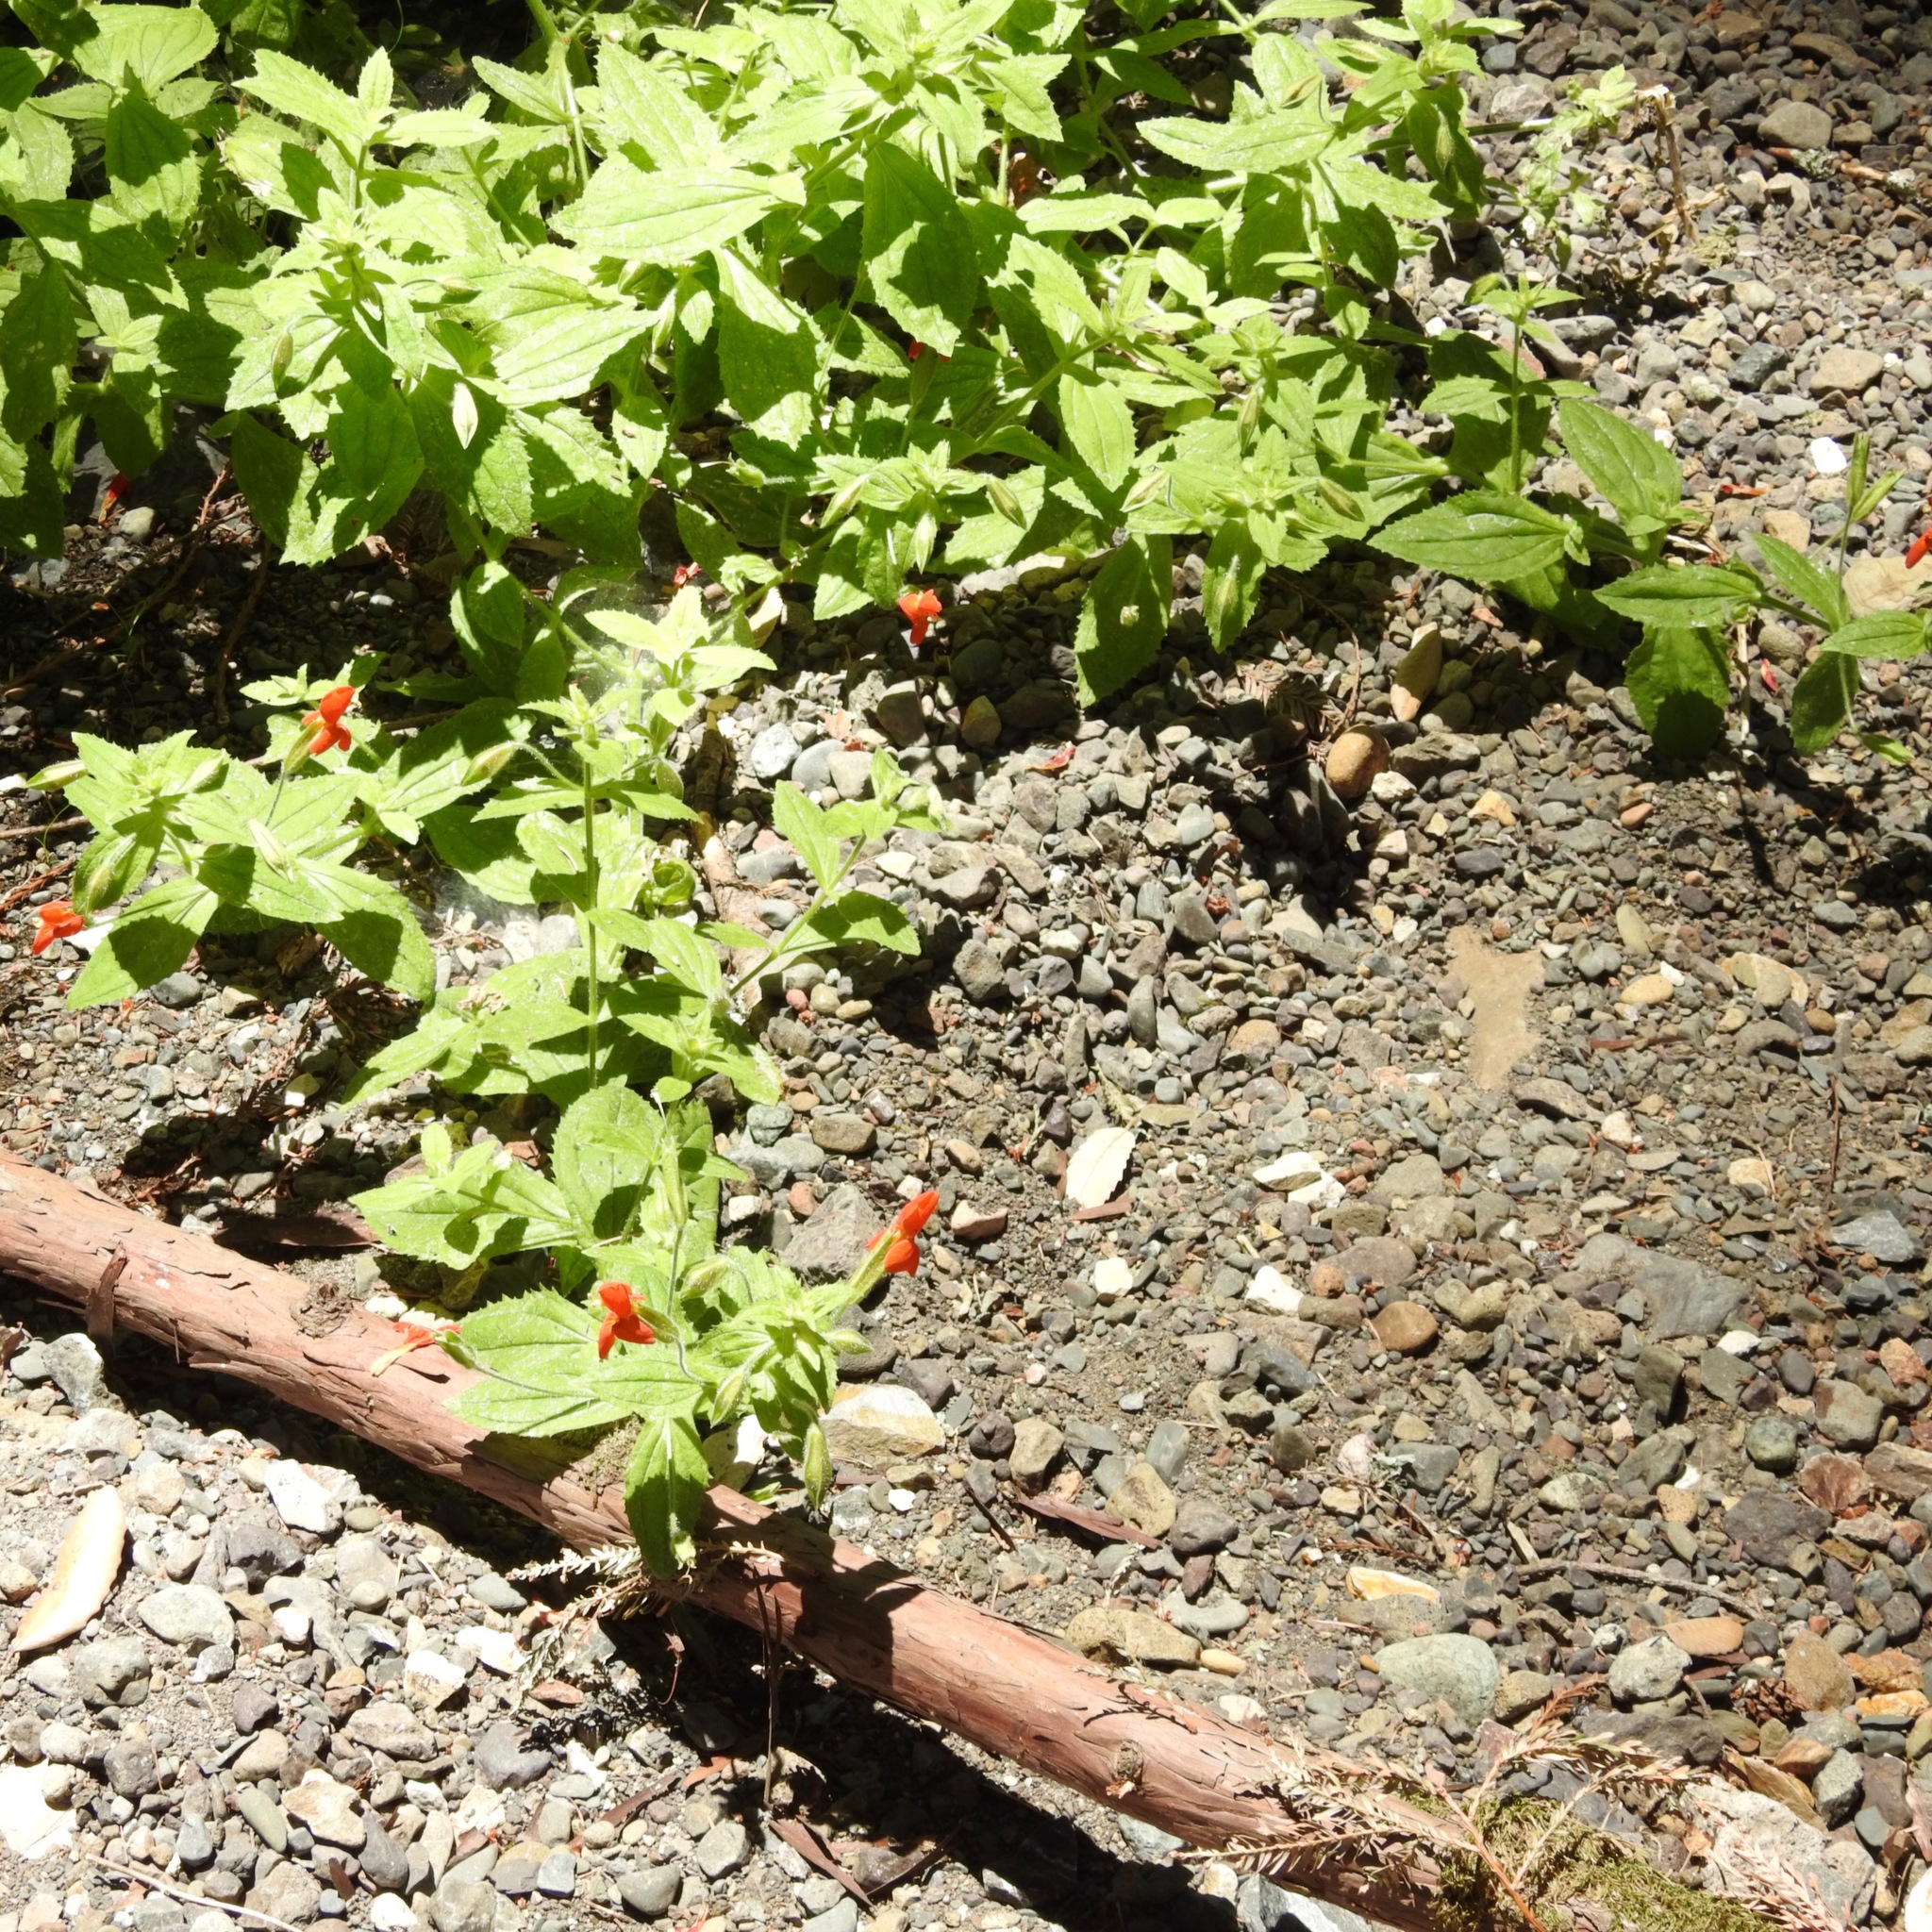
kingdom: Plantae
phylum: Tracheophyta
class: Magnoliopsida
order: Lamiales
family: Phrymaceae
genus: Erythranthe
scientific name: Erythranthe cardinalis
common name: Scarlet monkey-flower
